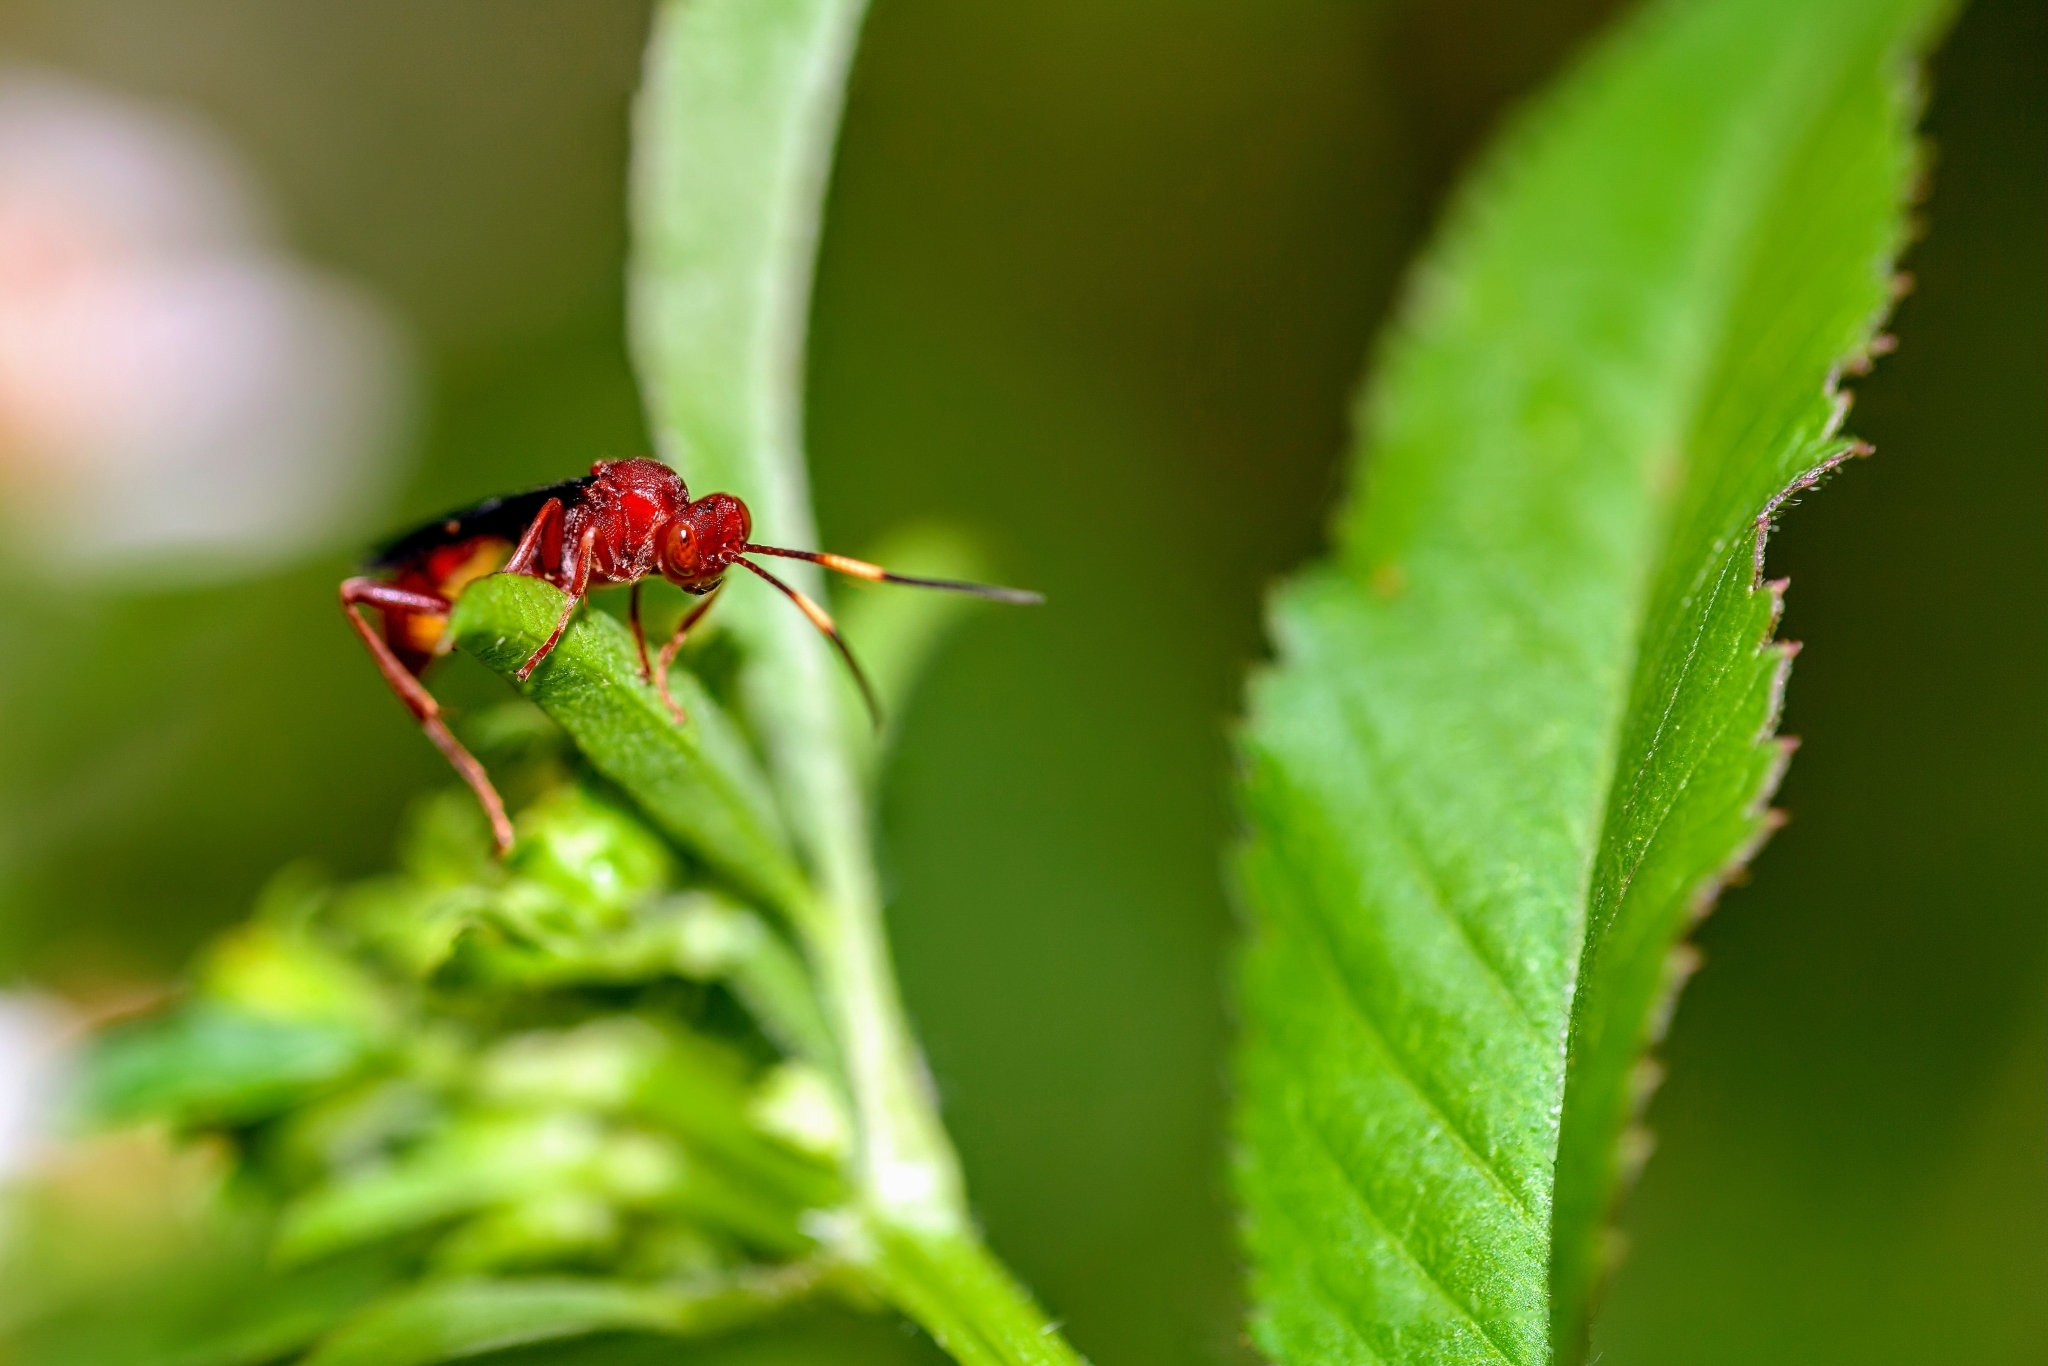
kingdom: Animalia
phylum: Arthropoda
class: Insecta
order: Hymenoptera
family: Ichneumonidae
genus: Trogomorpha
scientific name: Trogomorpha trogiformis
